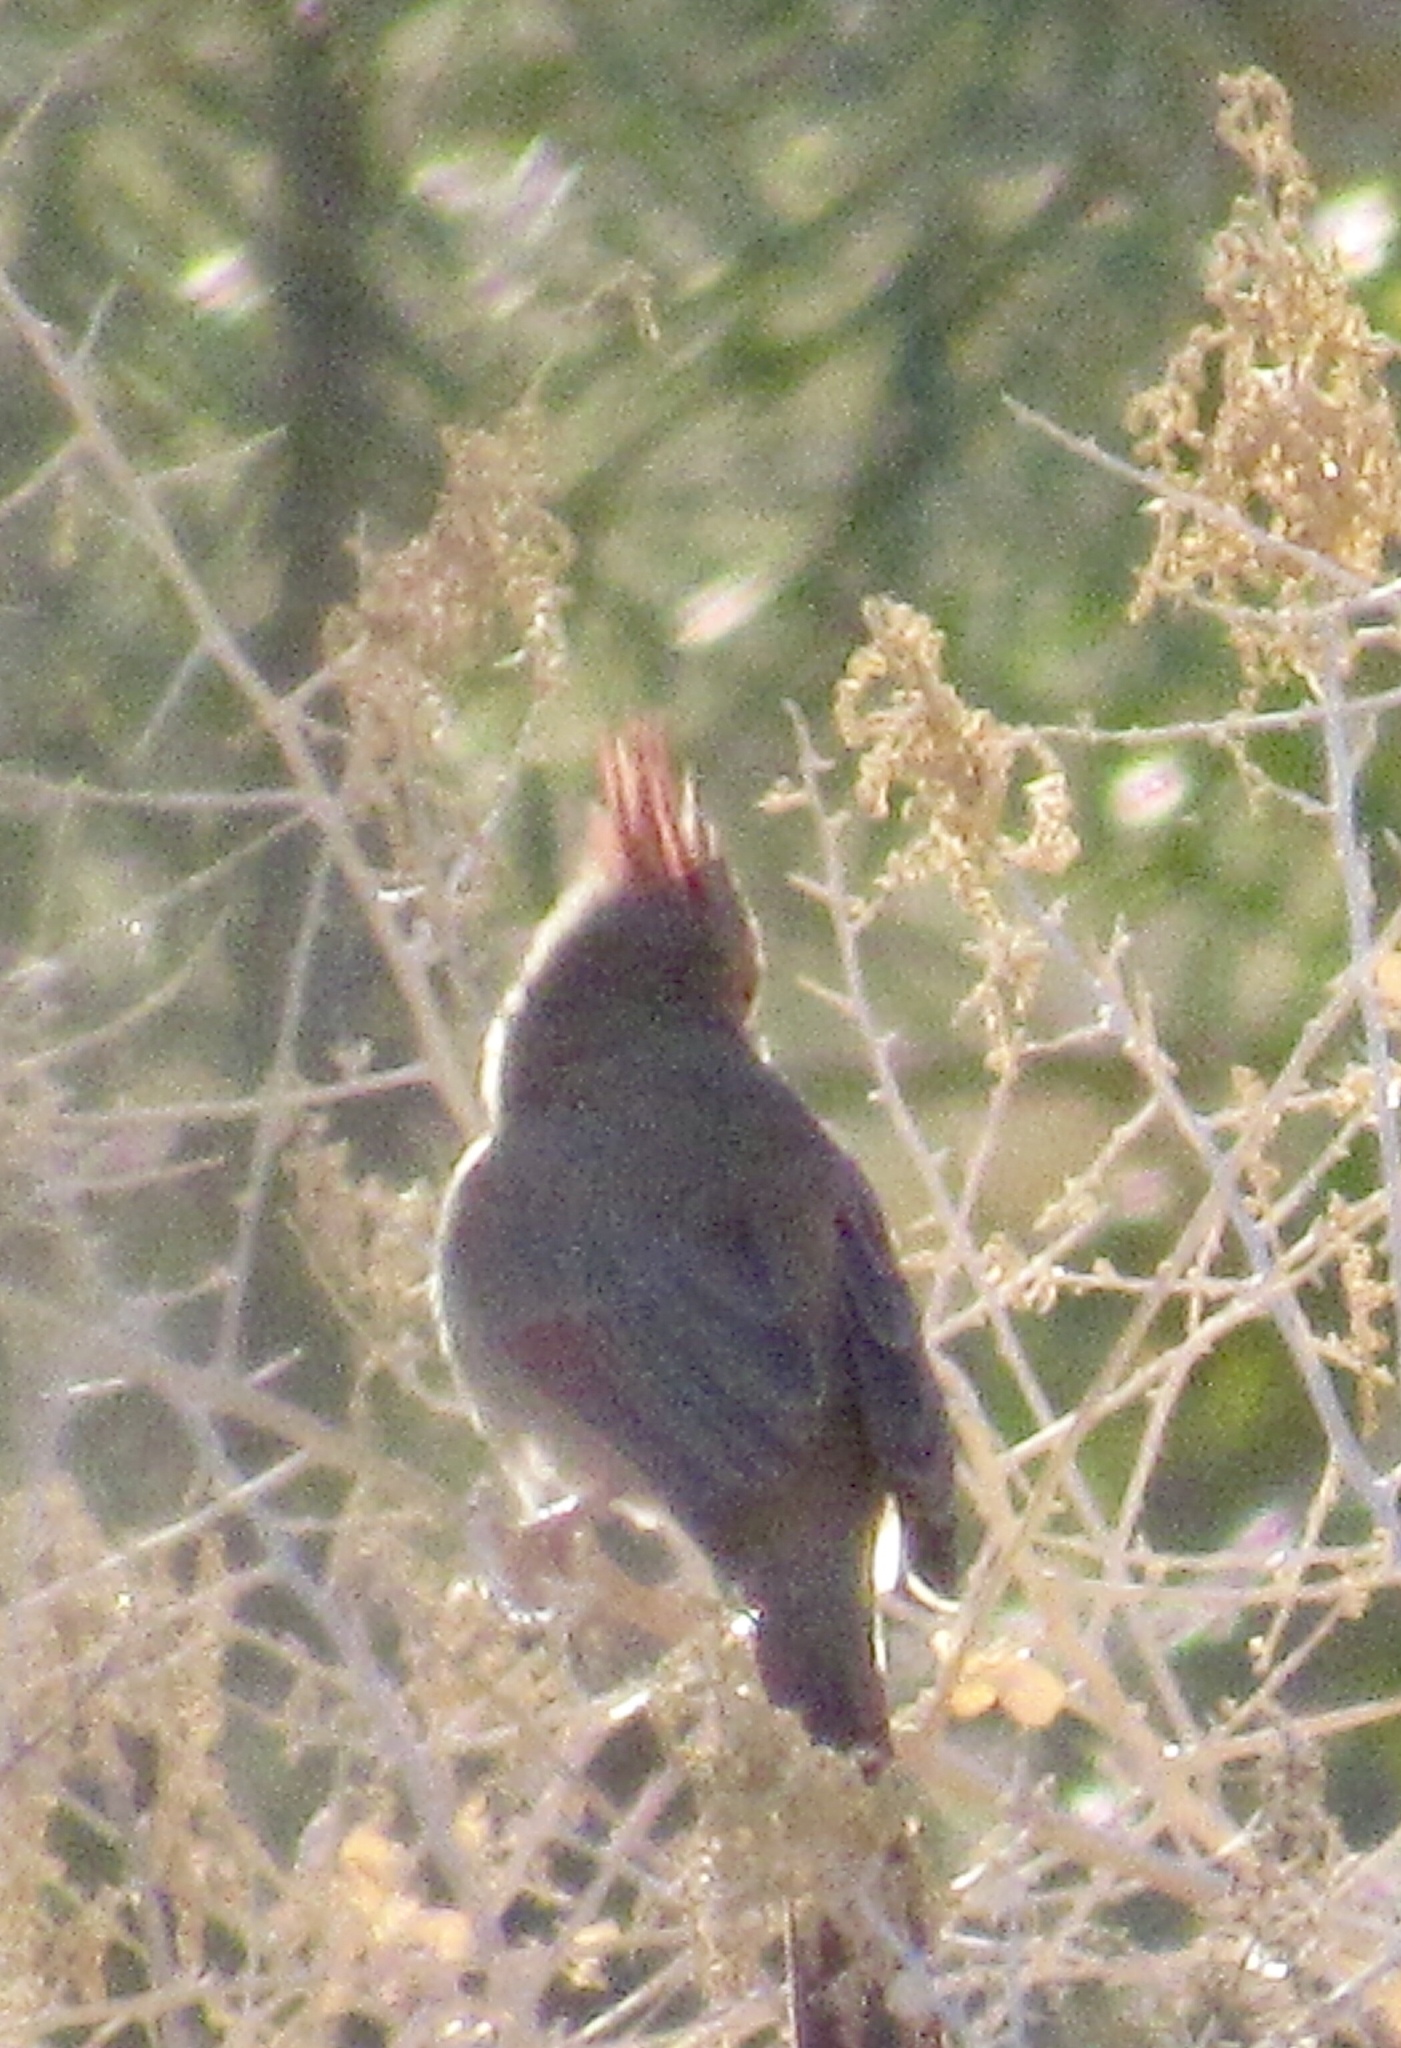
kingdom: Animalia
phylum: Chordata
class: Aves
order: Passeriformes
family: Cardinalidae
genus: Cardinalis
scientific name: Cardinalis sinuatus
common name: Pyrrhuloxia
